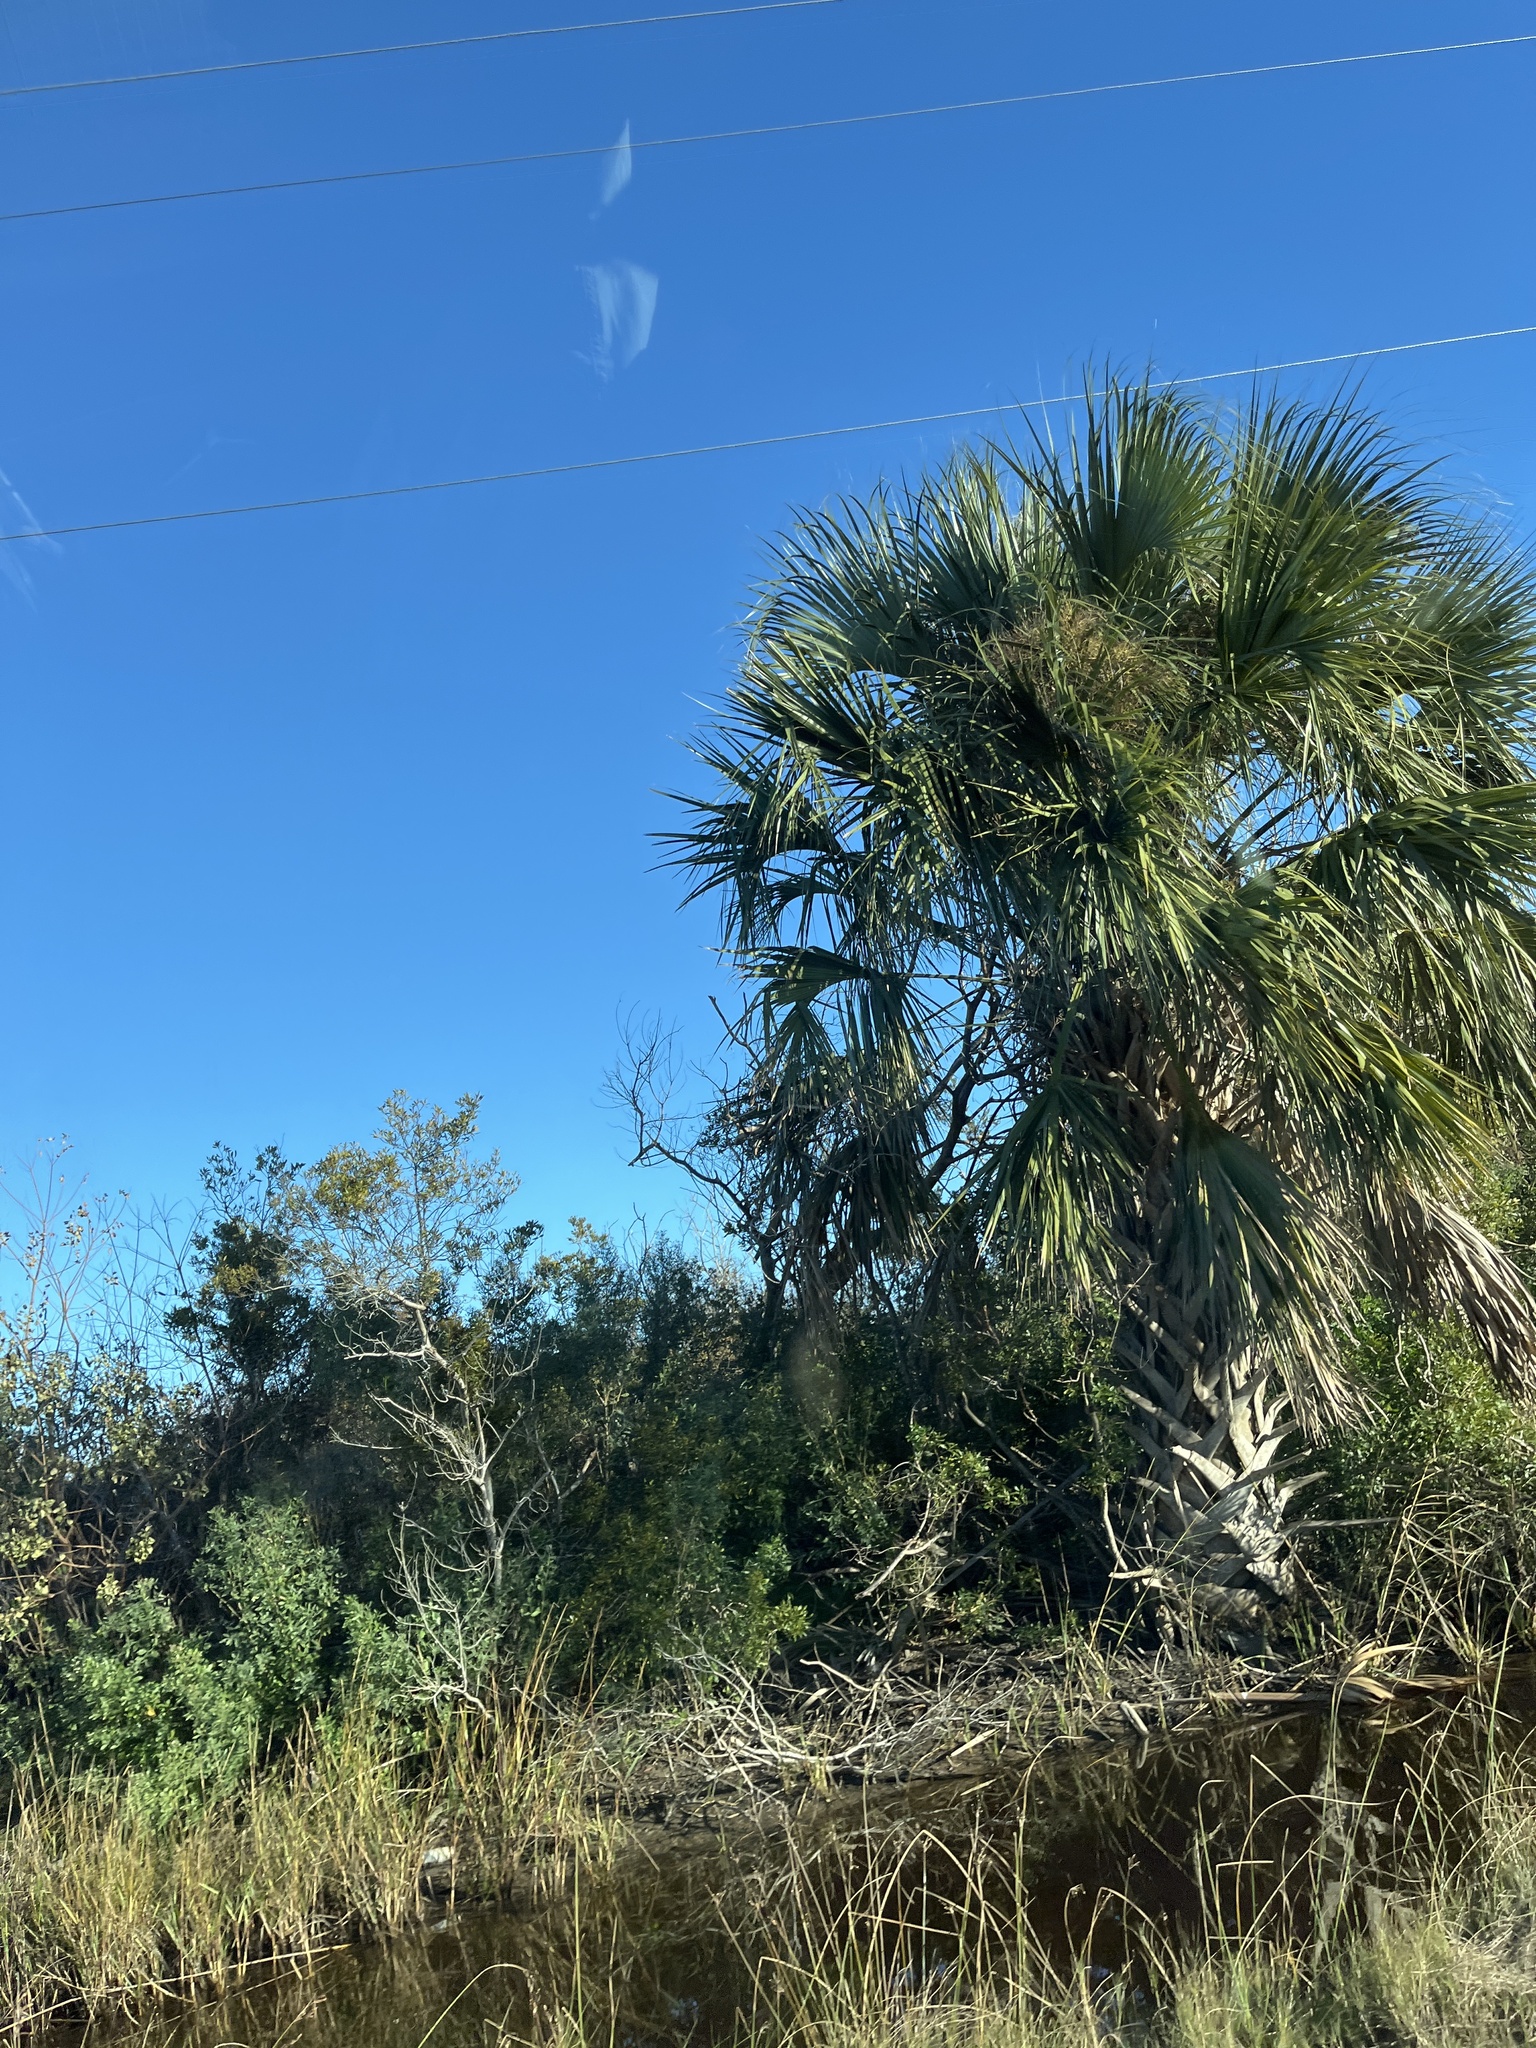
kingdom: Plantae
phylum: Tracheophyta
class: Liliopsida
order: Arecales
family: Arecaceae
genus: Sabal
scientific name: Sabal palmetto
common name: Blue palmetto
